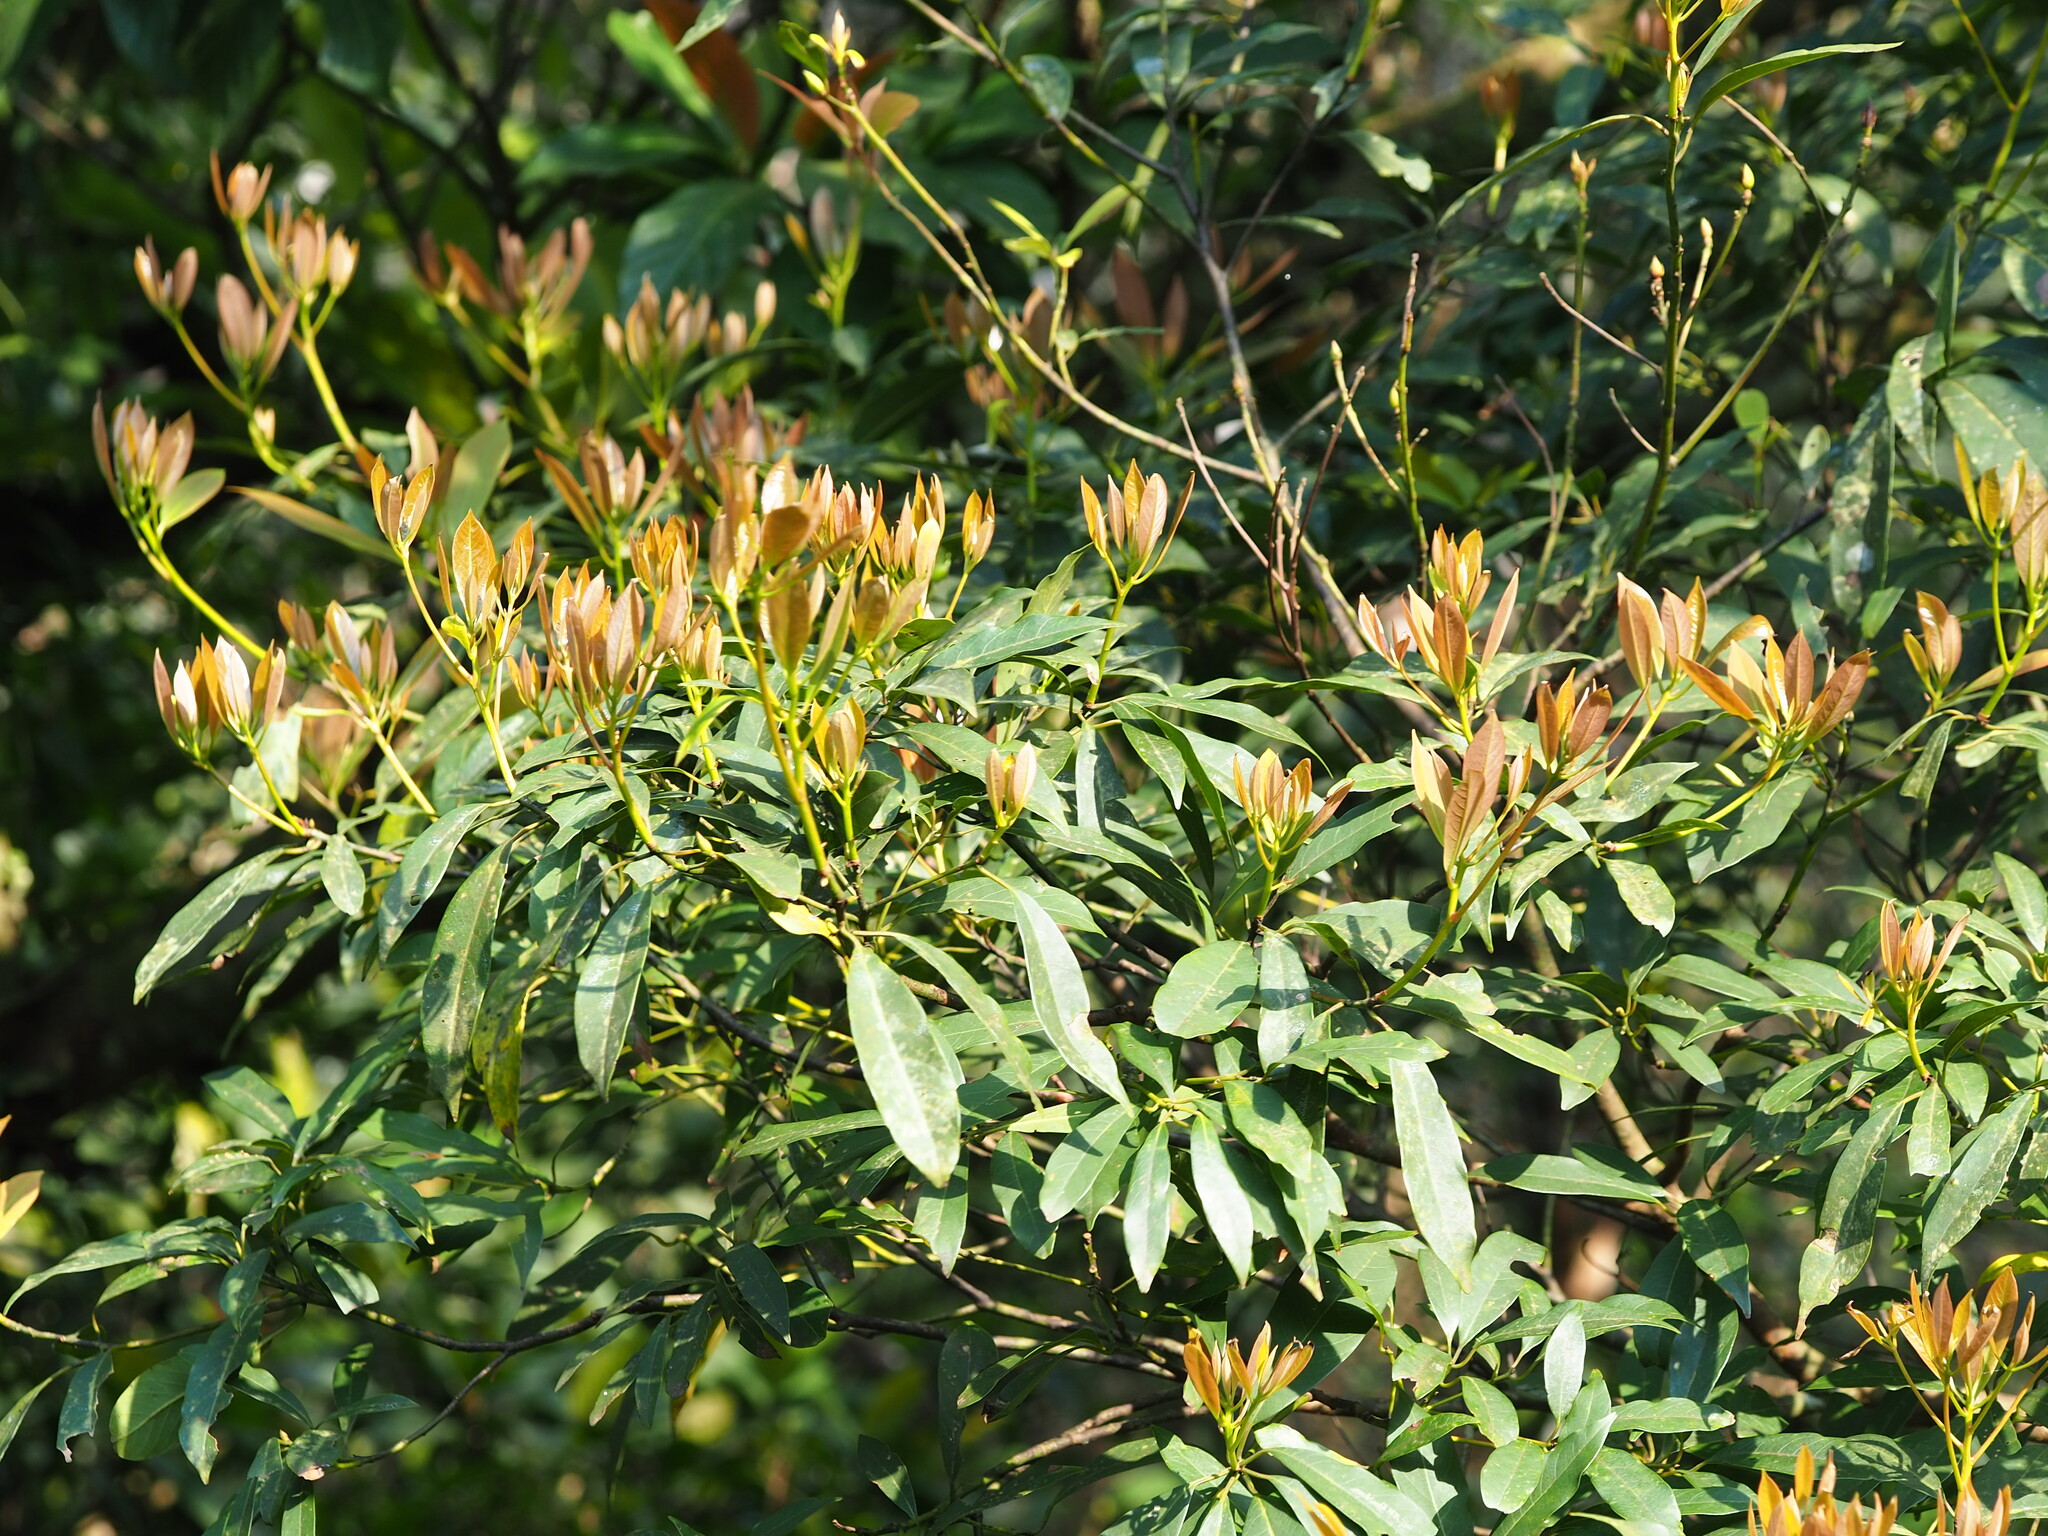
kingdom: Plantae
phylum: Tracheophyta
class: Magnoliopsida
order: Laurales
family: Lauraceae
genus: Machilus
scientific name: Machilus zuihoensis
